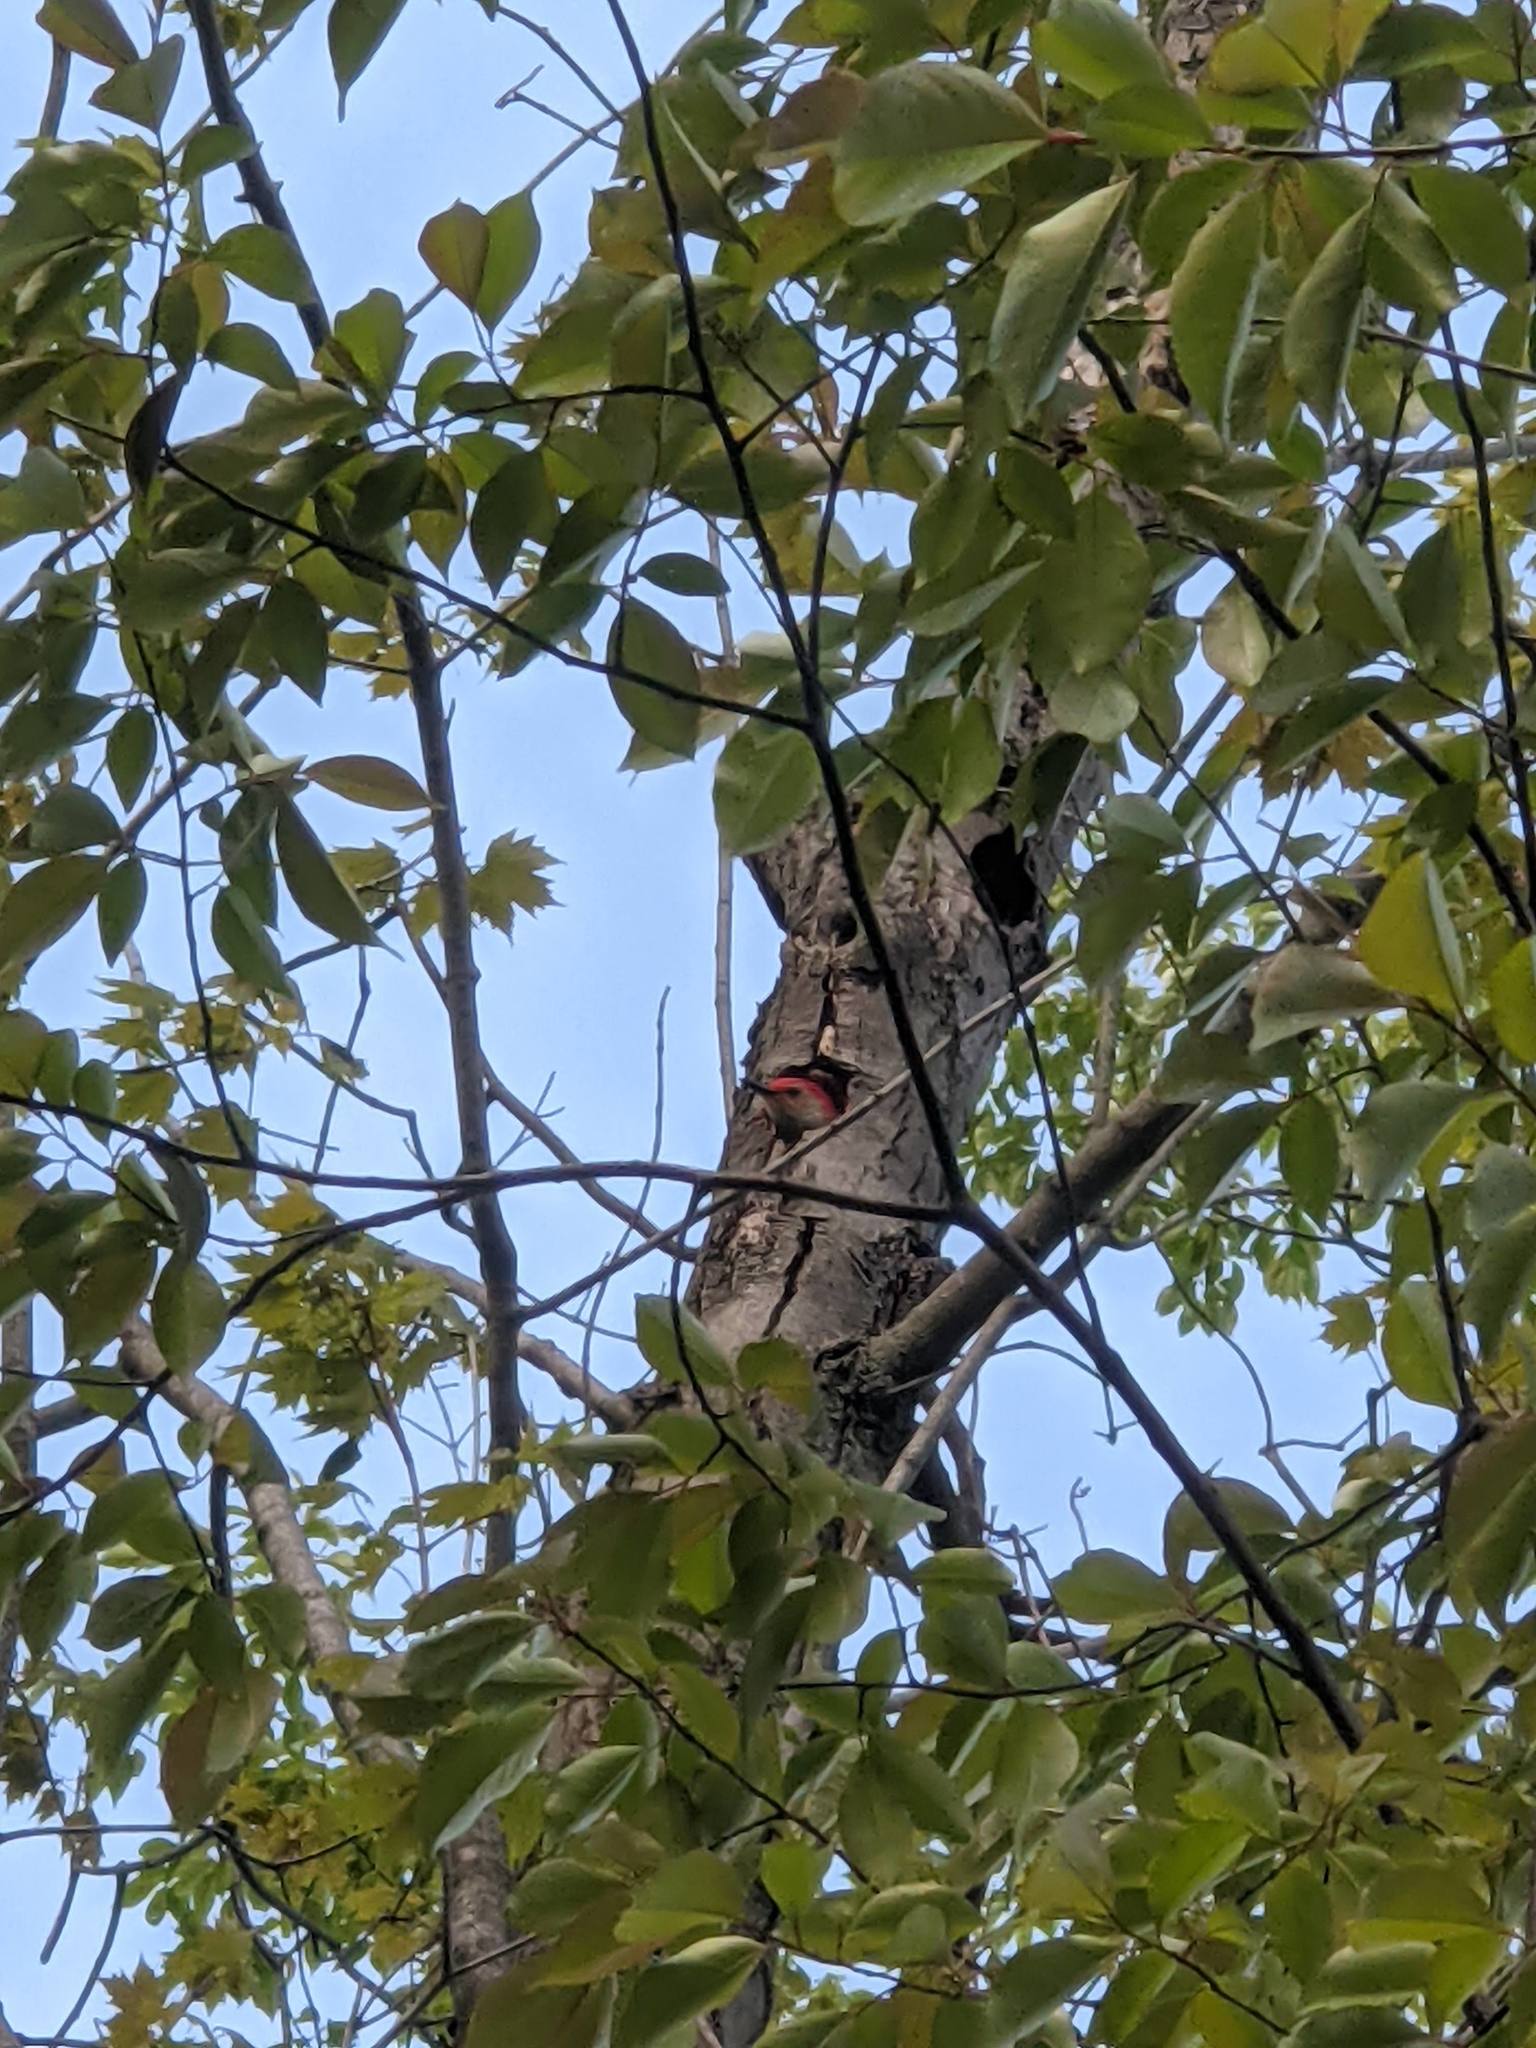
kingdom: Animalia
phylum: Chordata
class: Aves
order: Piciformes
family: Picidae
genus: Melanerpes
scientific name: Melanerpes carolinus
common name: Red-bellied woodpecker
